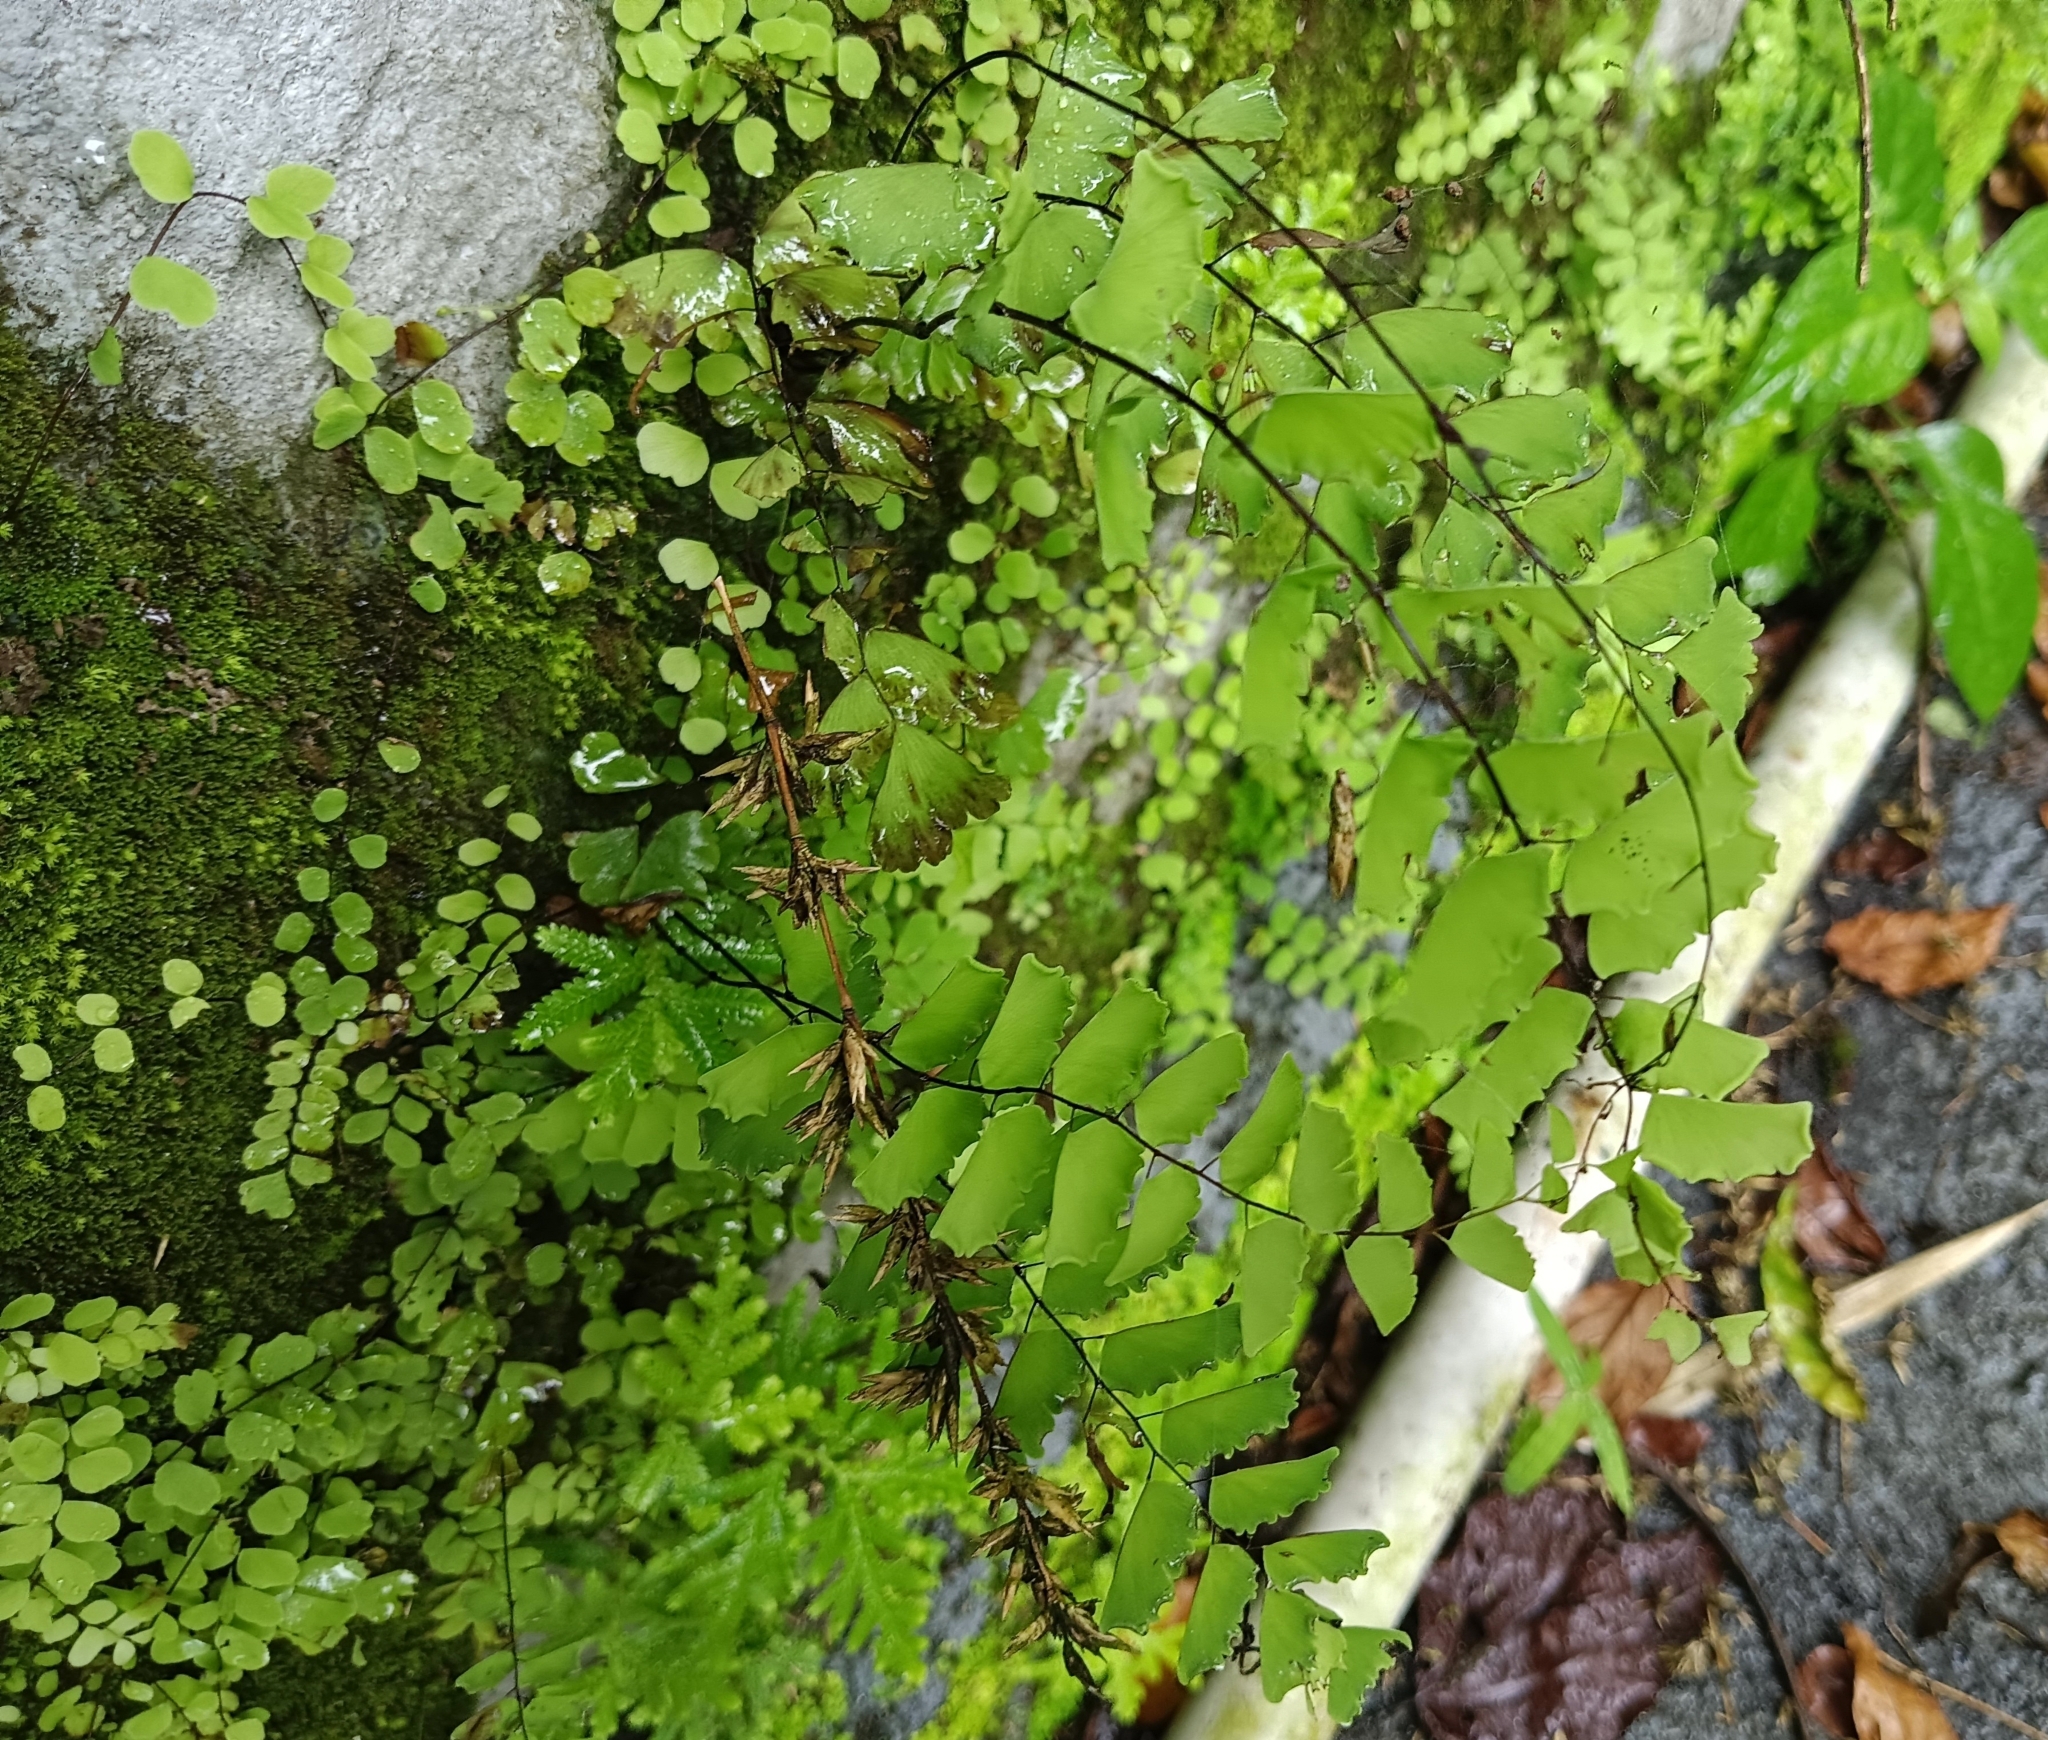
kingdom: Plantae
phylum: Tracheophyta
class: Polypodiopsida
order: Polypodiales
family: Pteridaceae
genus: Adiantum
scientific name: Adiantum philippense
